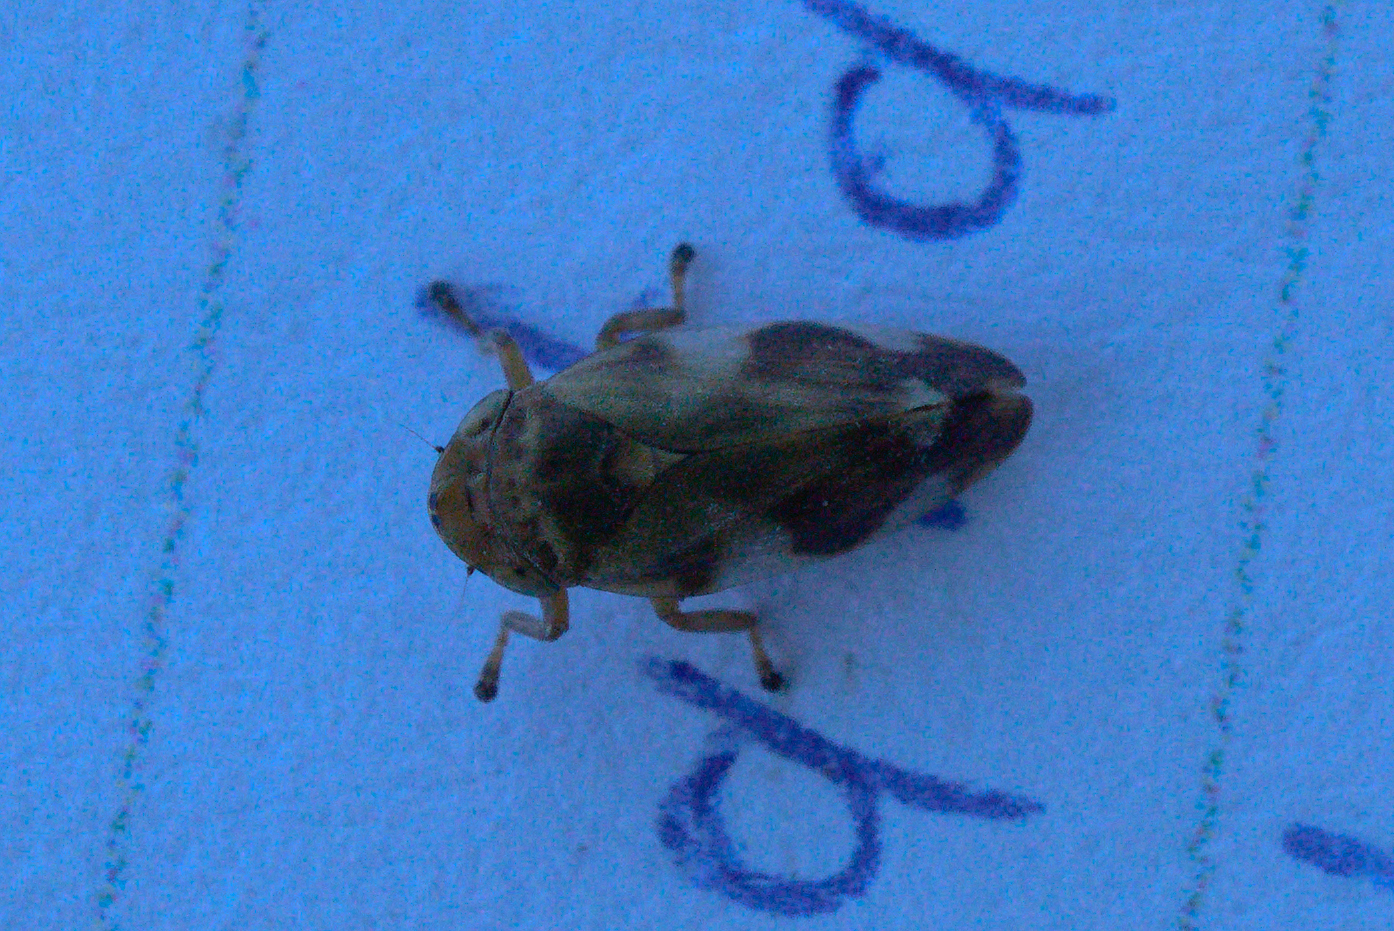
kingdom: Animalia
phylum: Arthropoda
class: Insecta
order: Hemiptera
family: Aphrophoridae
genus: Philaenus
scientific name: Philaenus spumarius
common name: Meadow spittlebug
